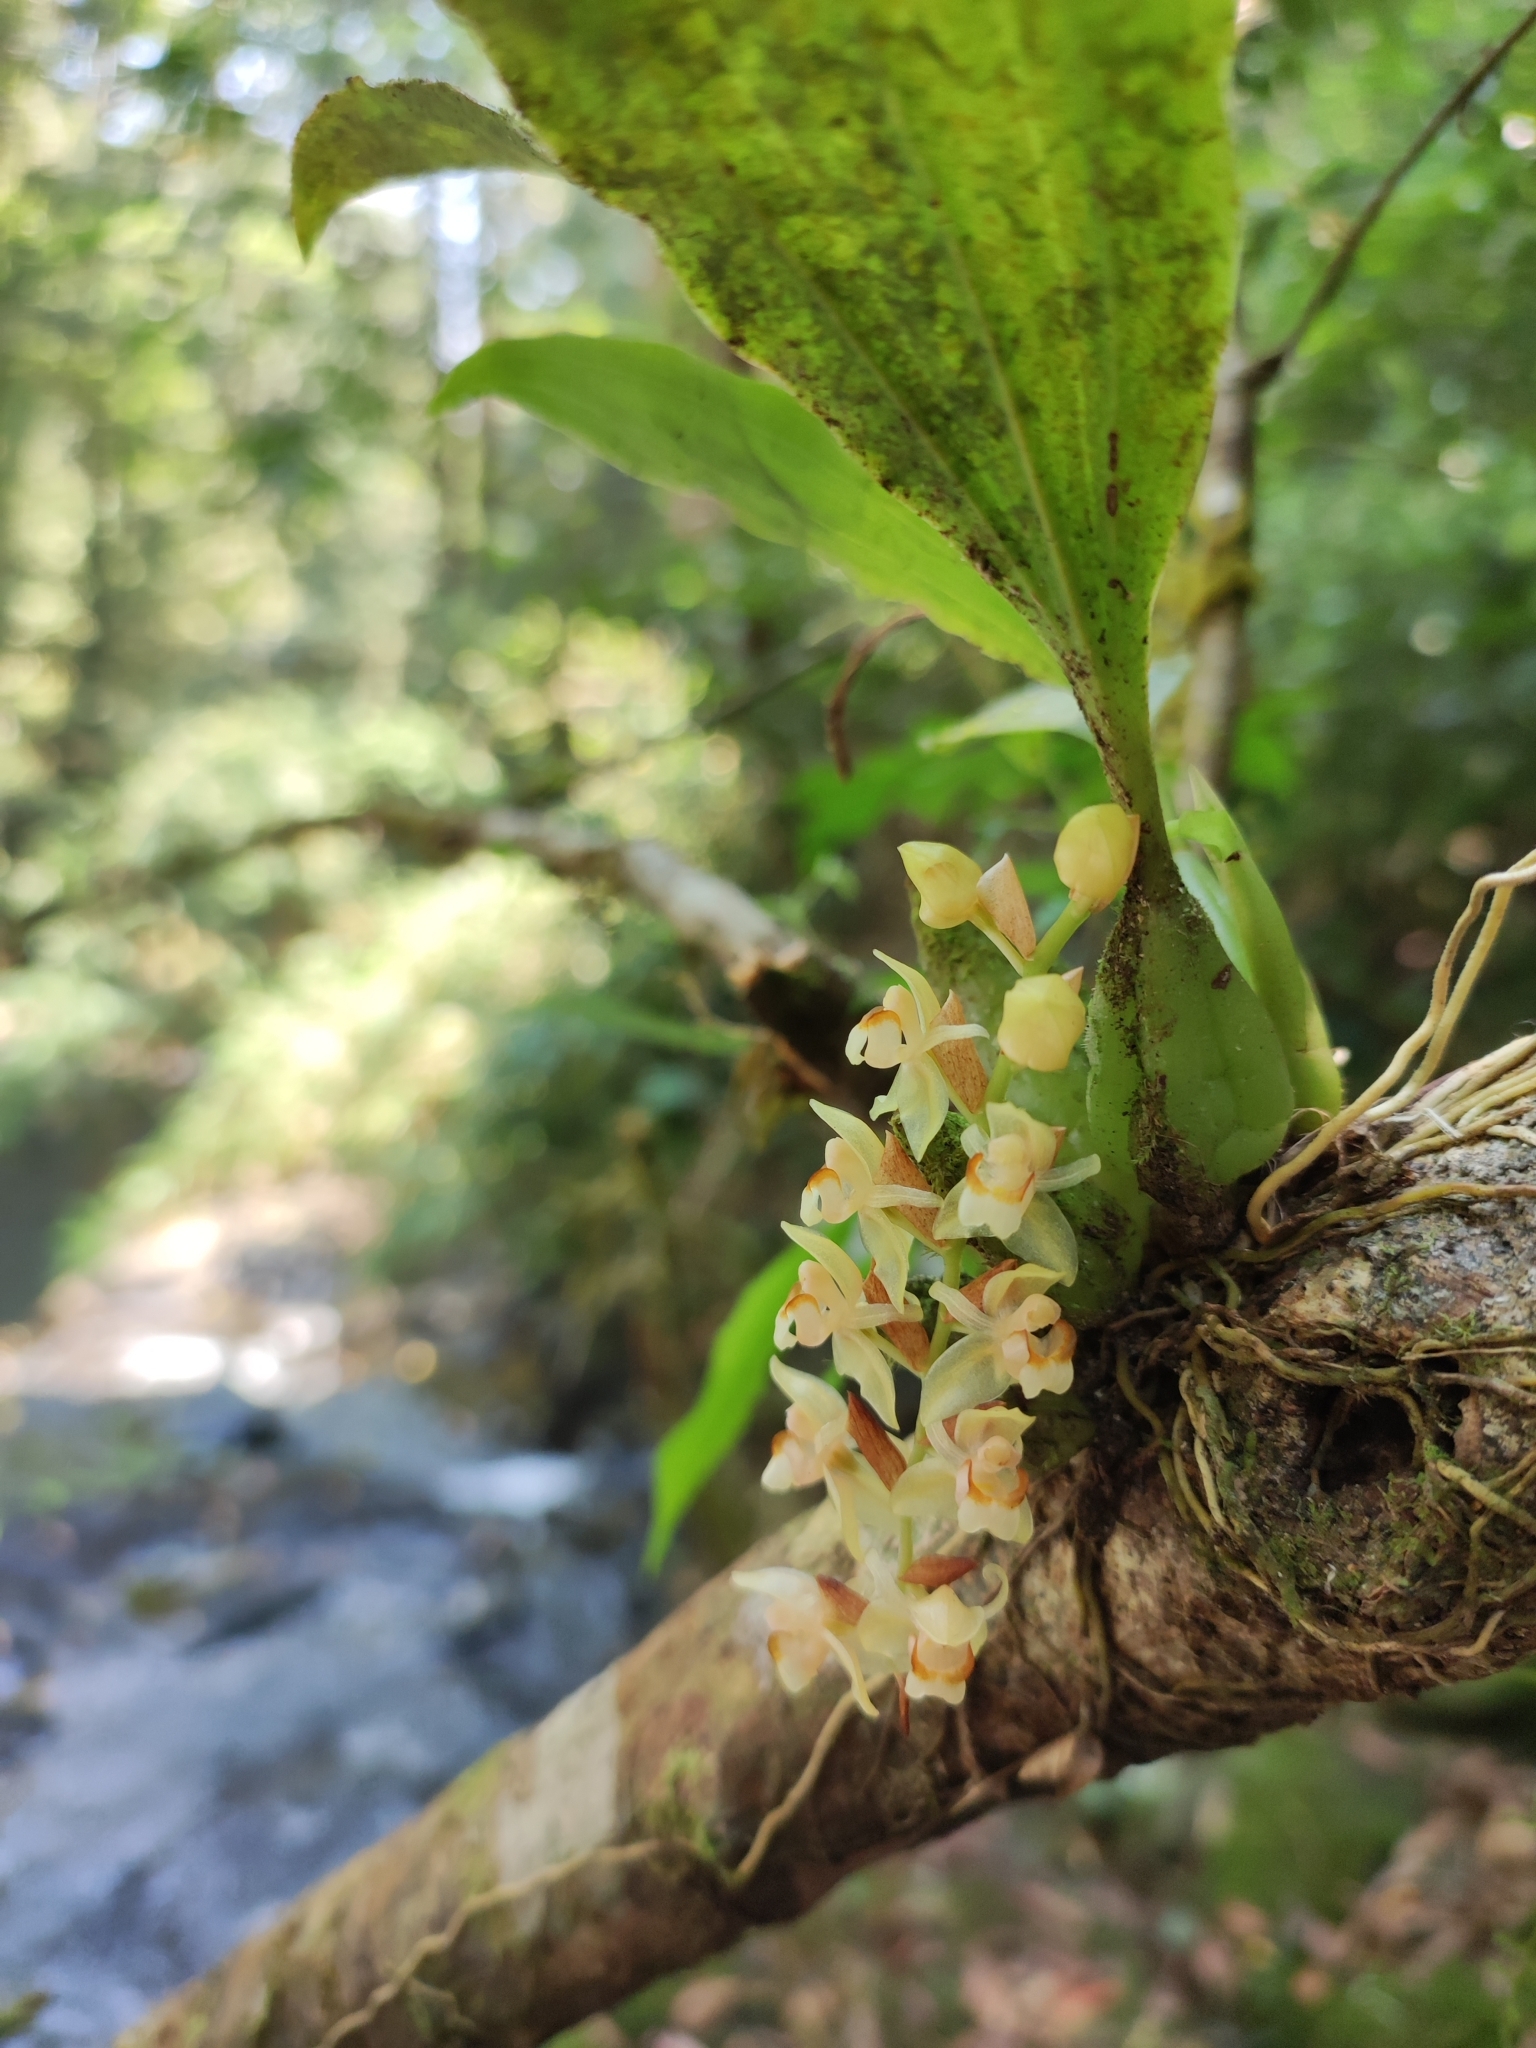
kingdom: Plantae
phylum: Tracheophyta
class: Liliopsida
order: Asparagales
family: Orchidaceae
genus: Coelogyne
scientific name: Coelogyne chinensis
